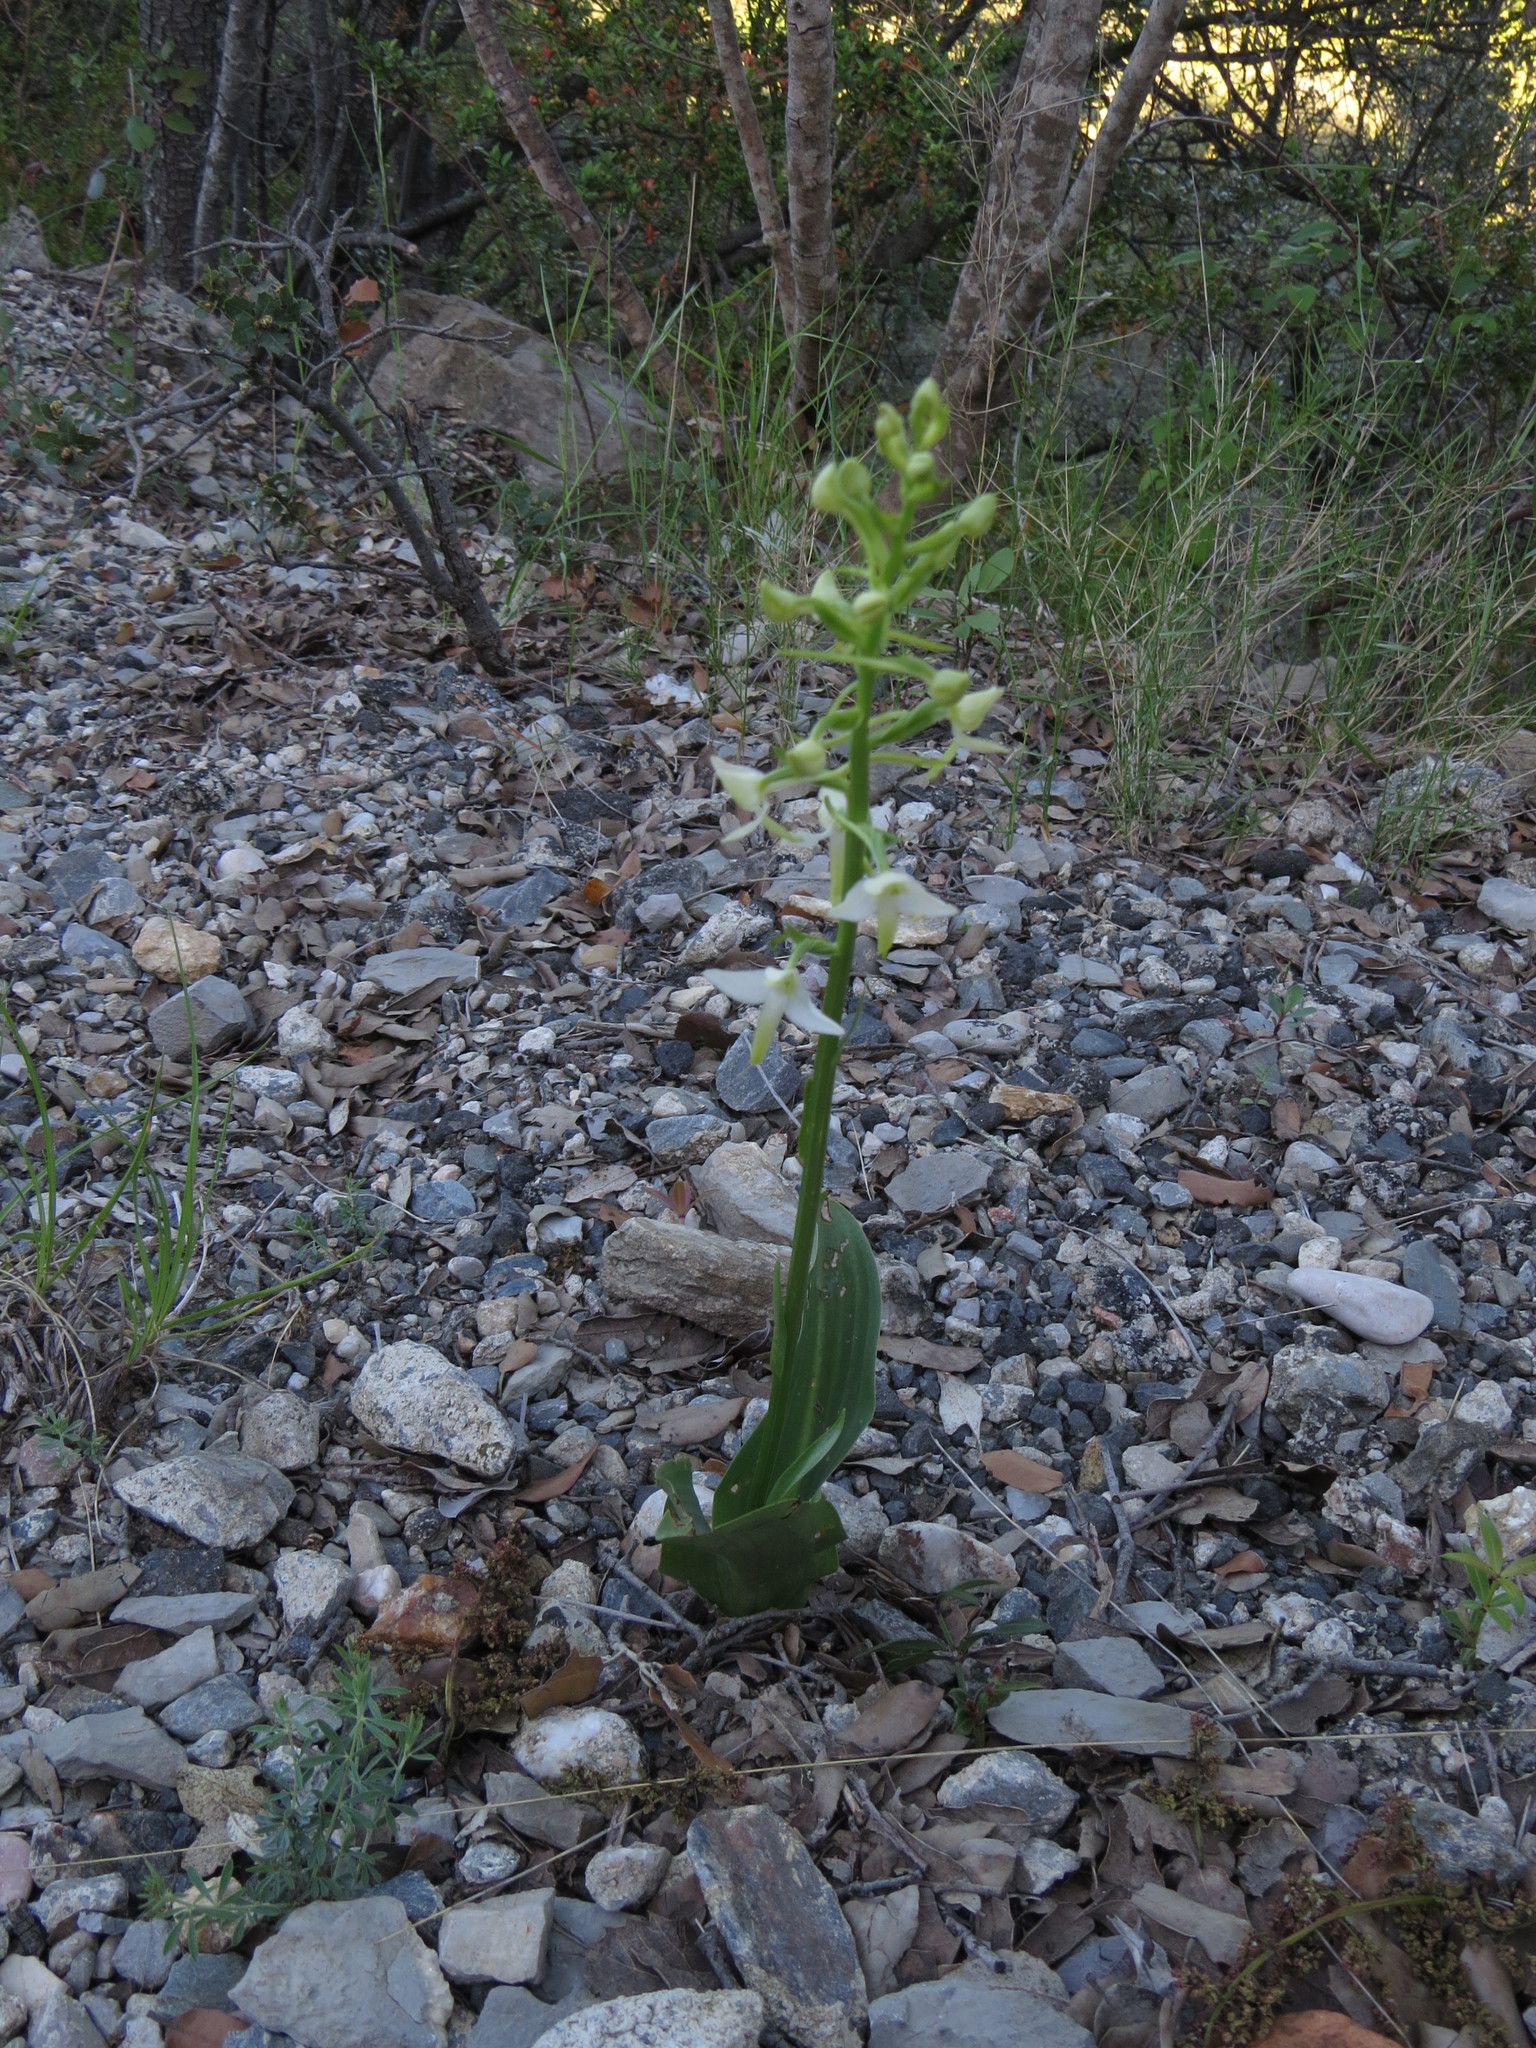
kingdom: Plantae
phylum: Tracheophyta
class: Liliopsida
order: Asparagales
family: Orchidaceae
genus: Platanthera
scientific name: Platanthera bifolia
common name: Lesser butterfly-orchid
